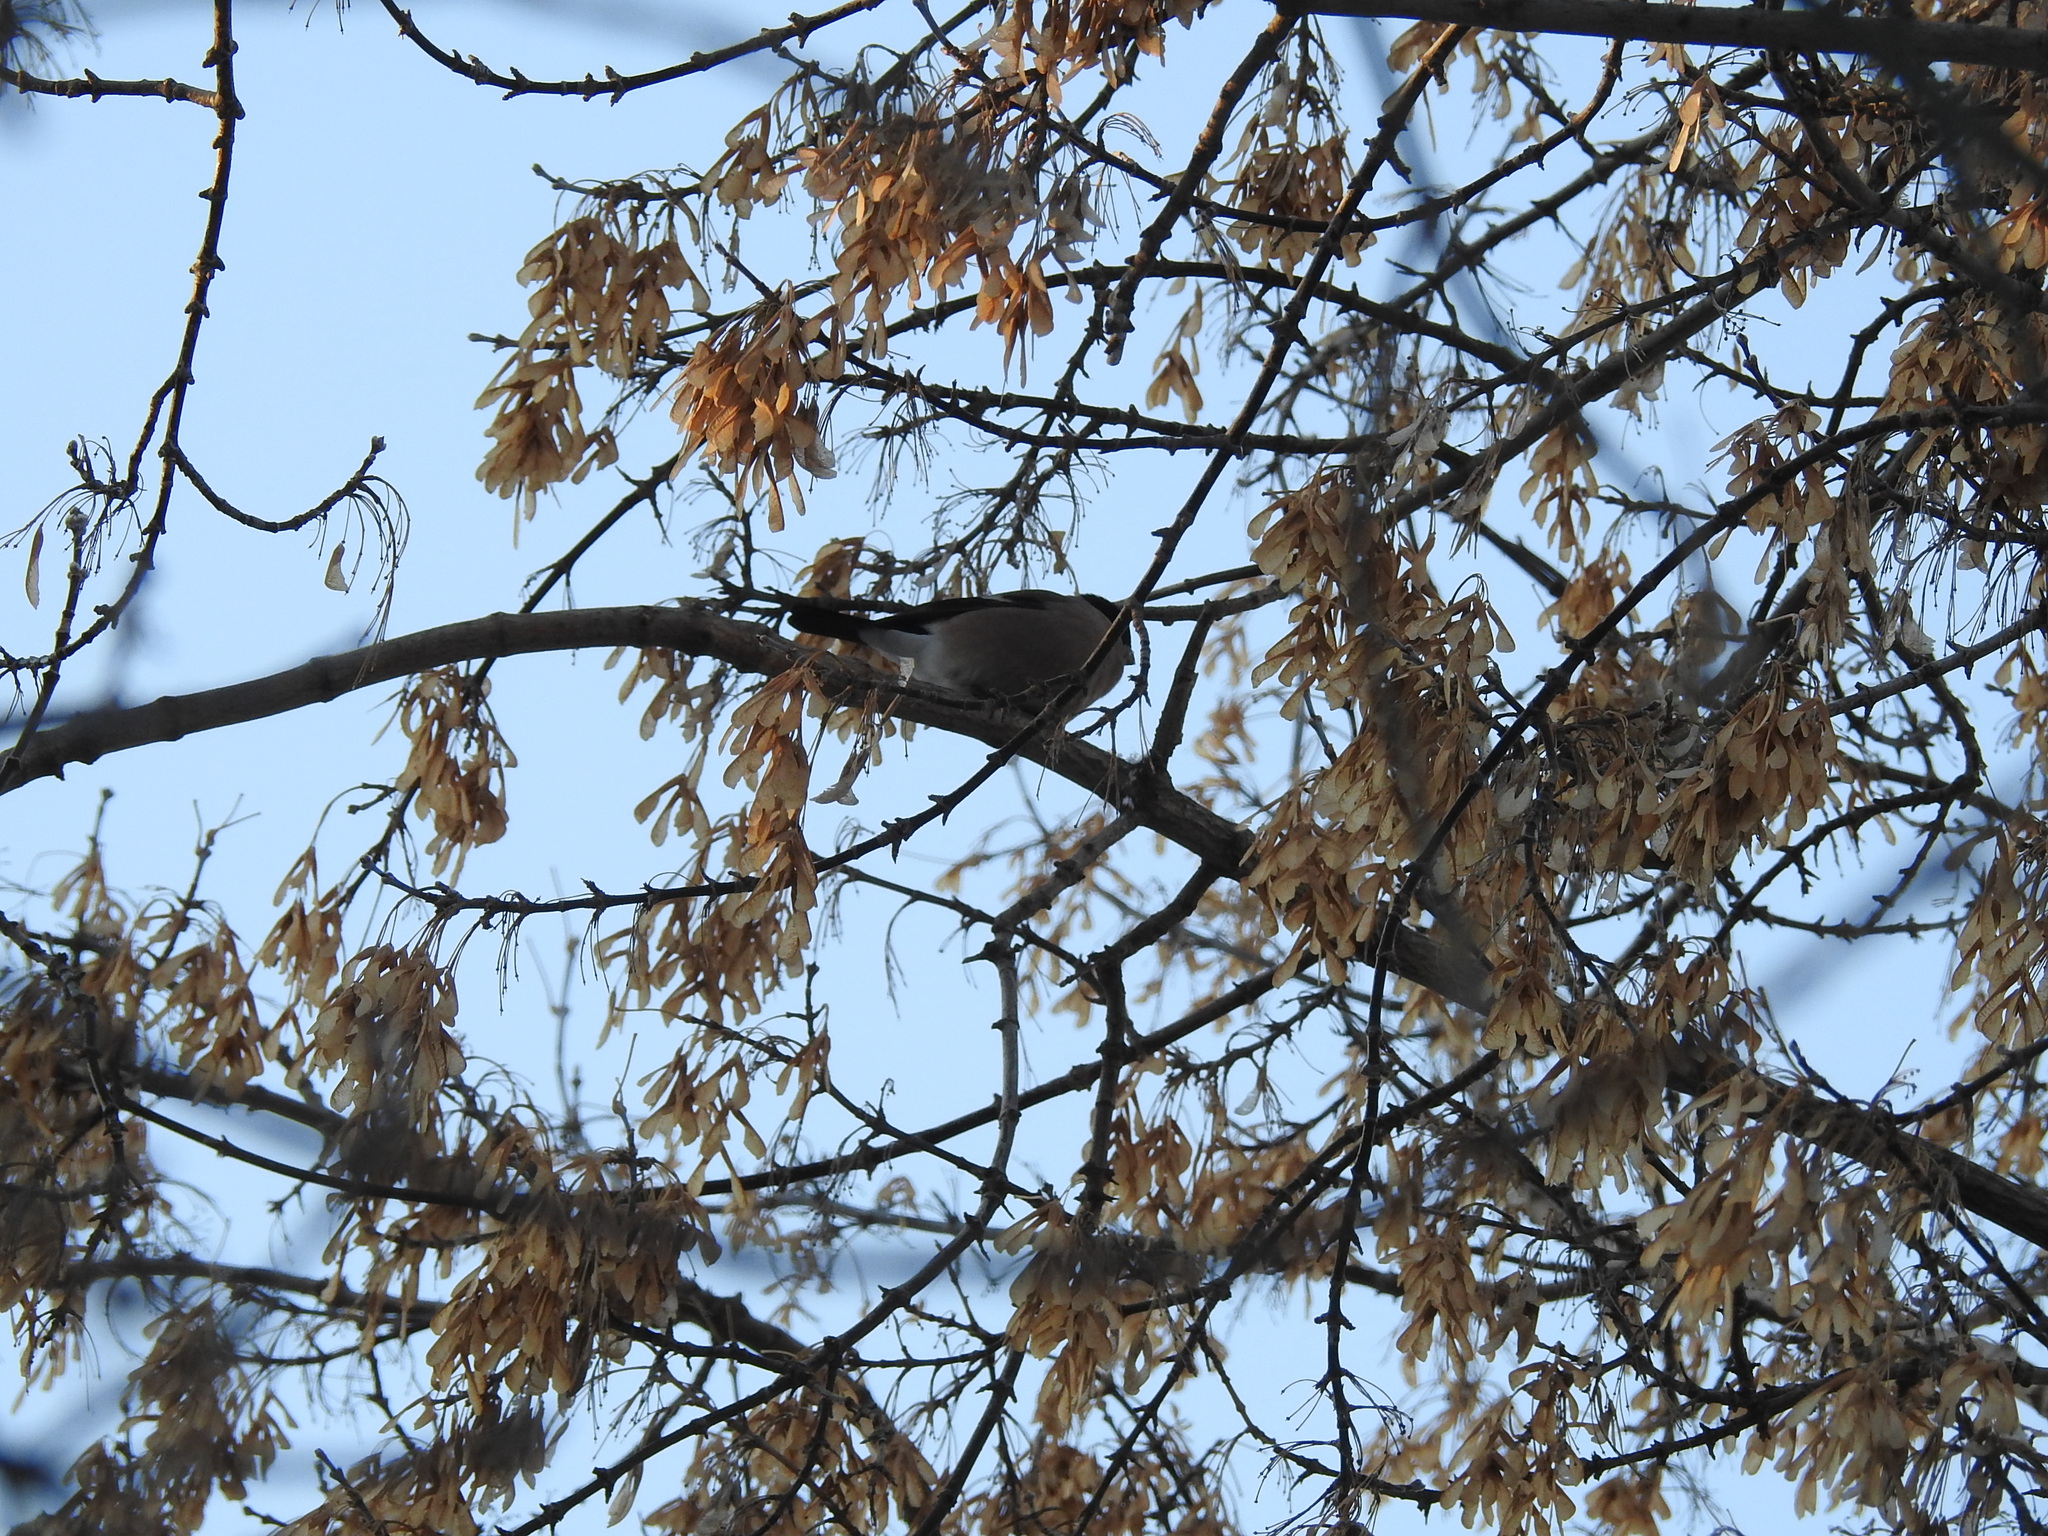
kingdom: Animalia
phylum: Chordata
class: Aves
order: Passeriformes
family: Fringillidae
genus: Pyrrhula
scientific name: Pyrrhula pyrrhula
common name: Eurasian bullfinch
